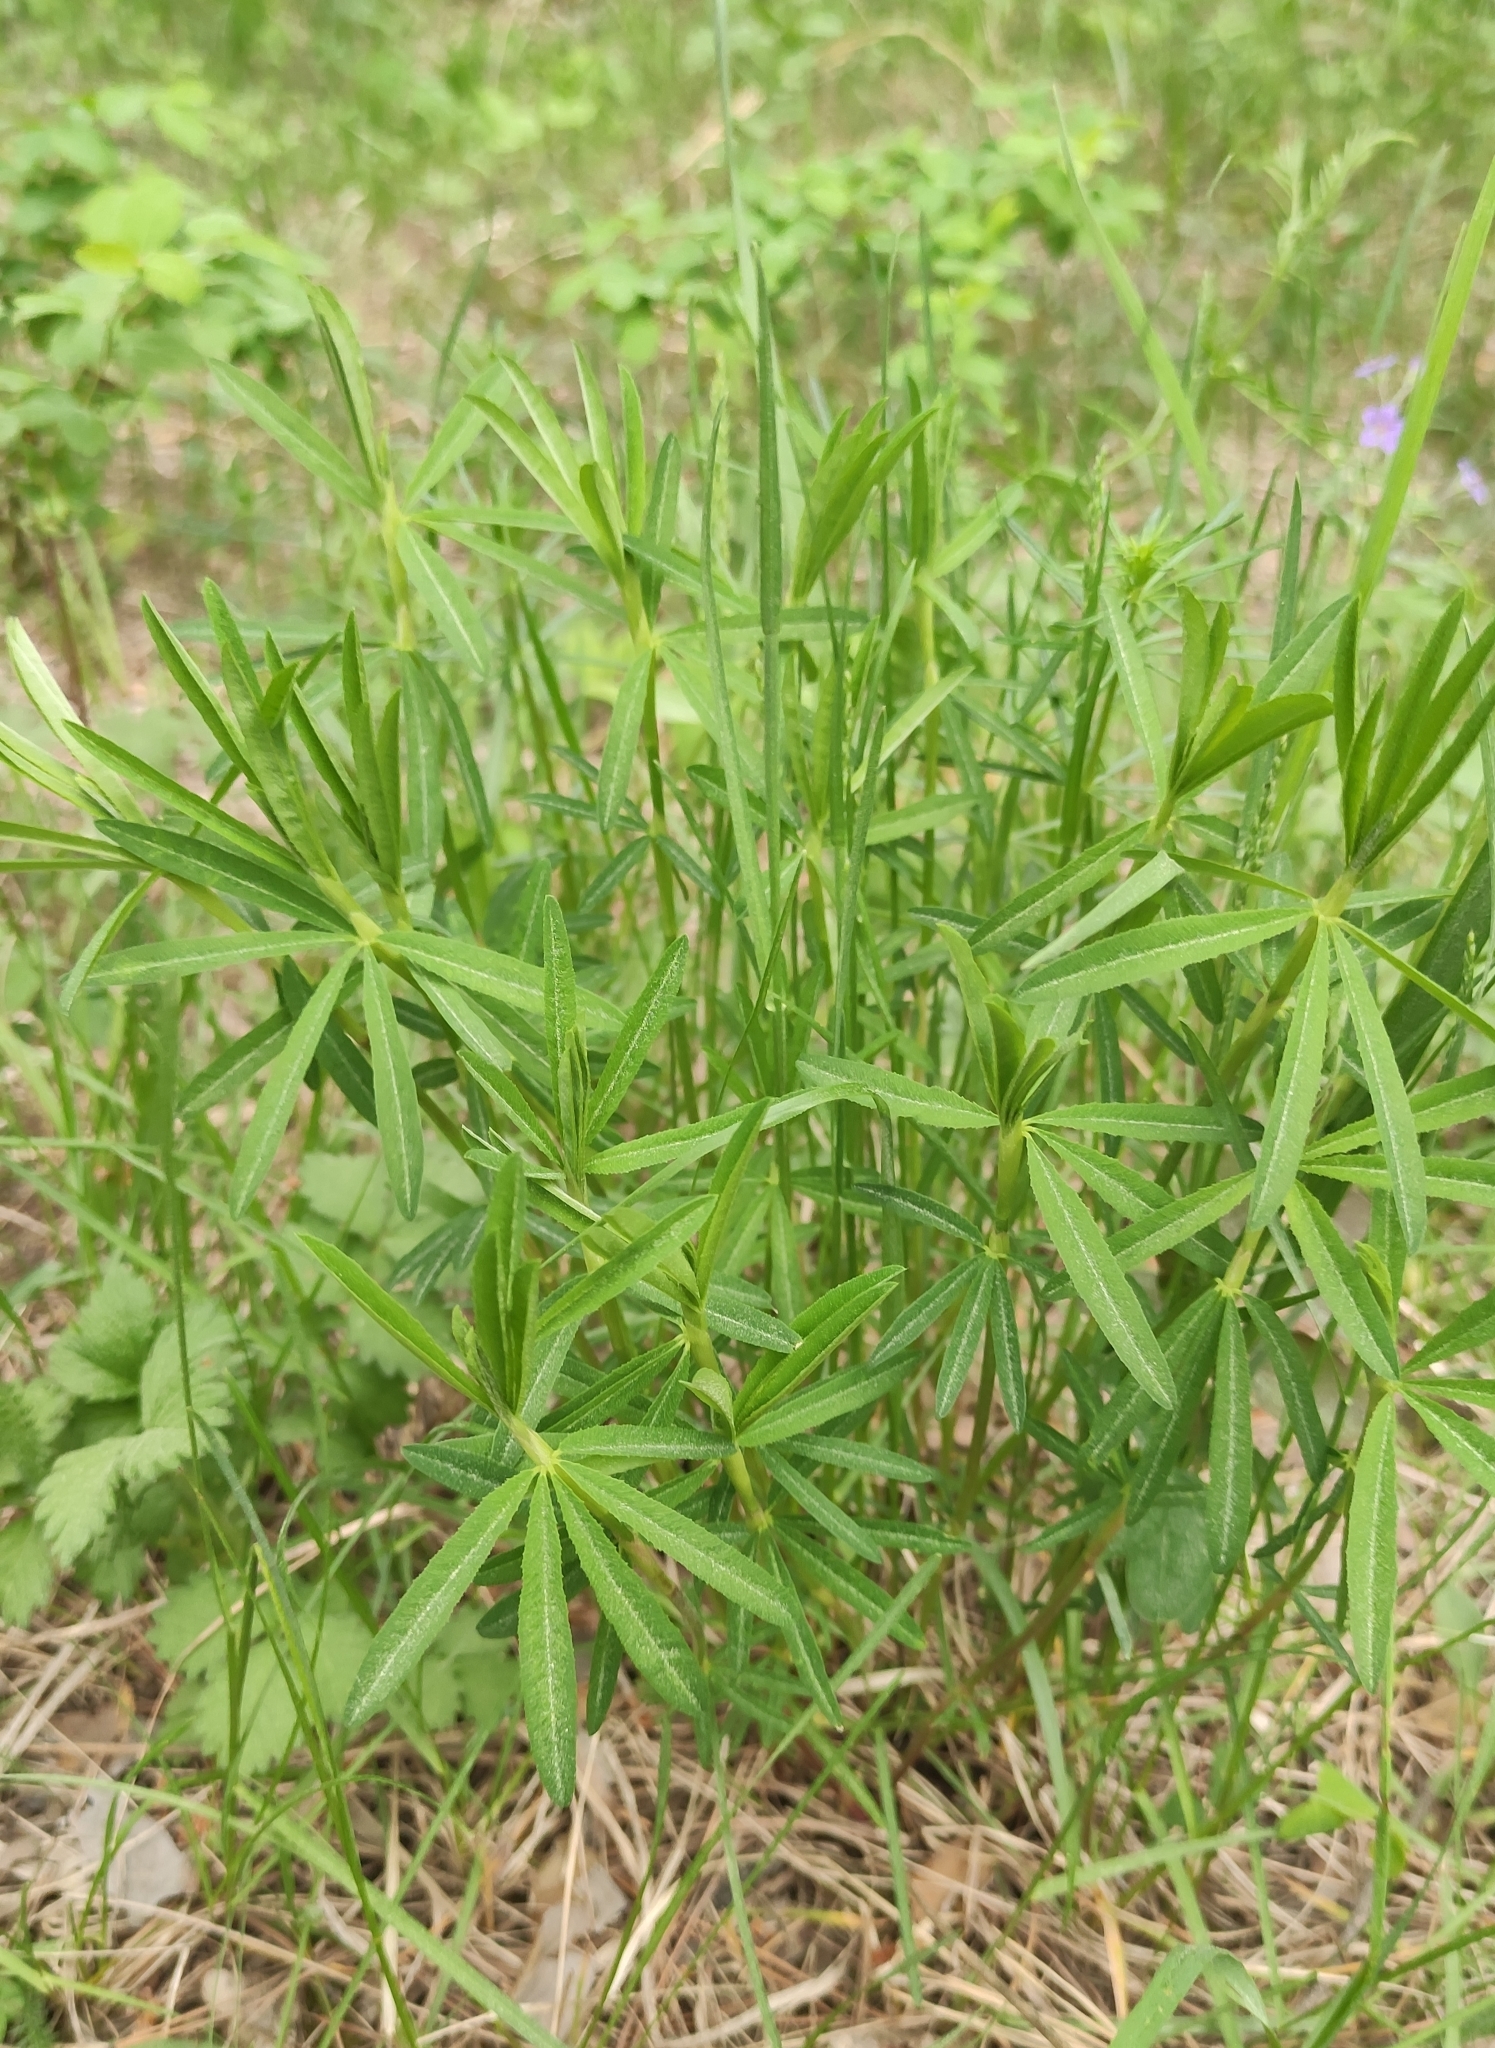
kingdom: Plantae
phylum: Tracheophyta
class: Magnoliopsida
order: Fabales
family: Fabaceae
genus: Trifolium
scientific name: Trifolium lupinaster
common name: Lupine clover
